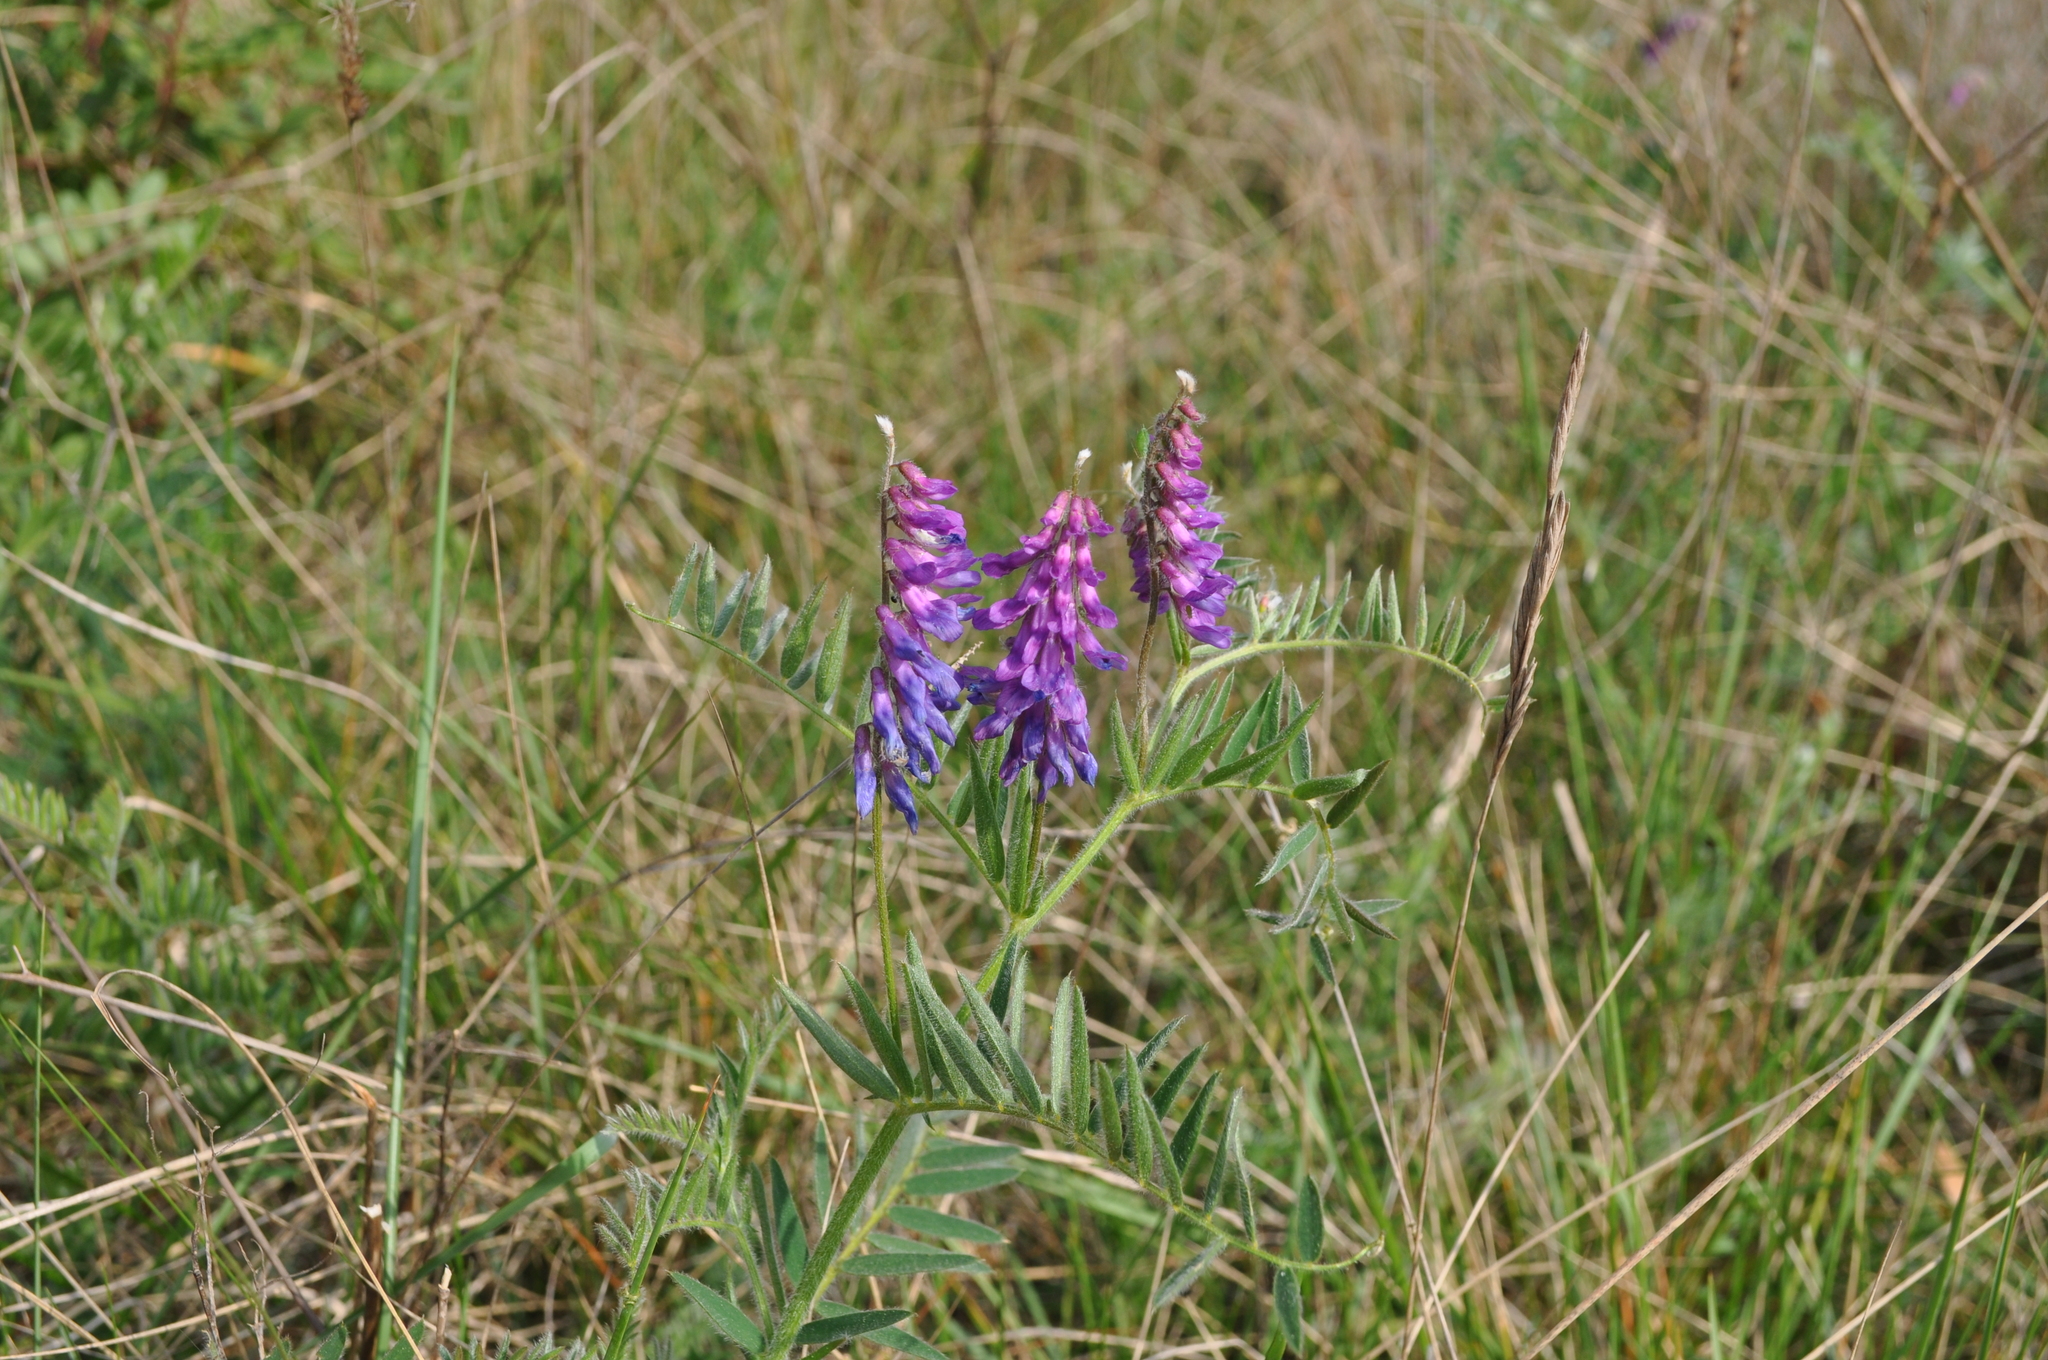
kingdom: Plantae
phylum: Tracheophyta
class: Magnoliopsida
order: Fabales
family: Fabaceae
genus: Vicia
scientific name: Vicia incana
